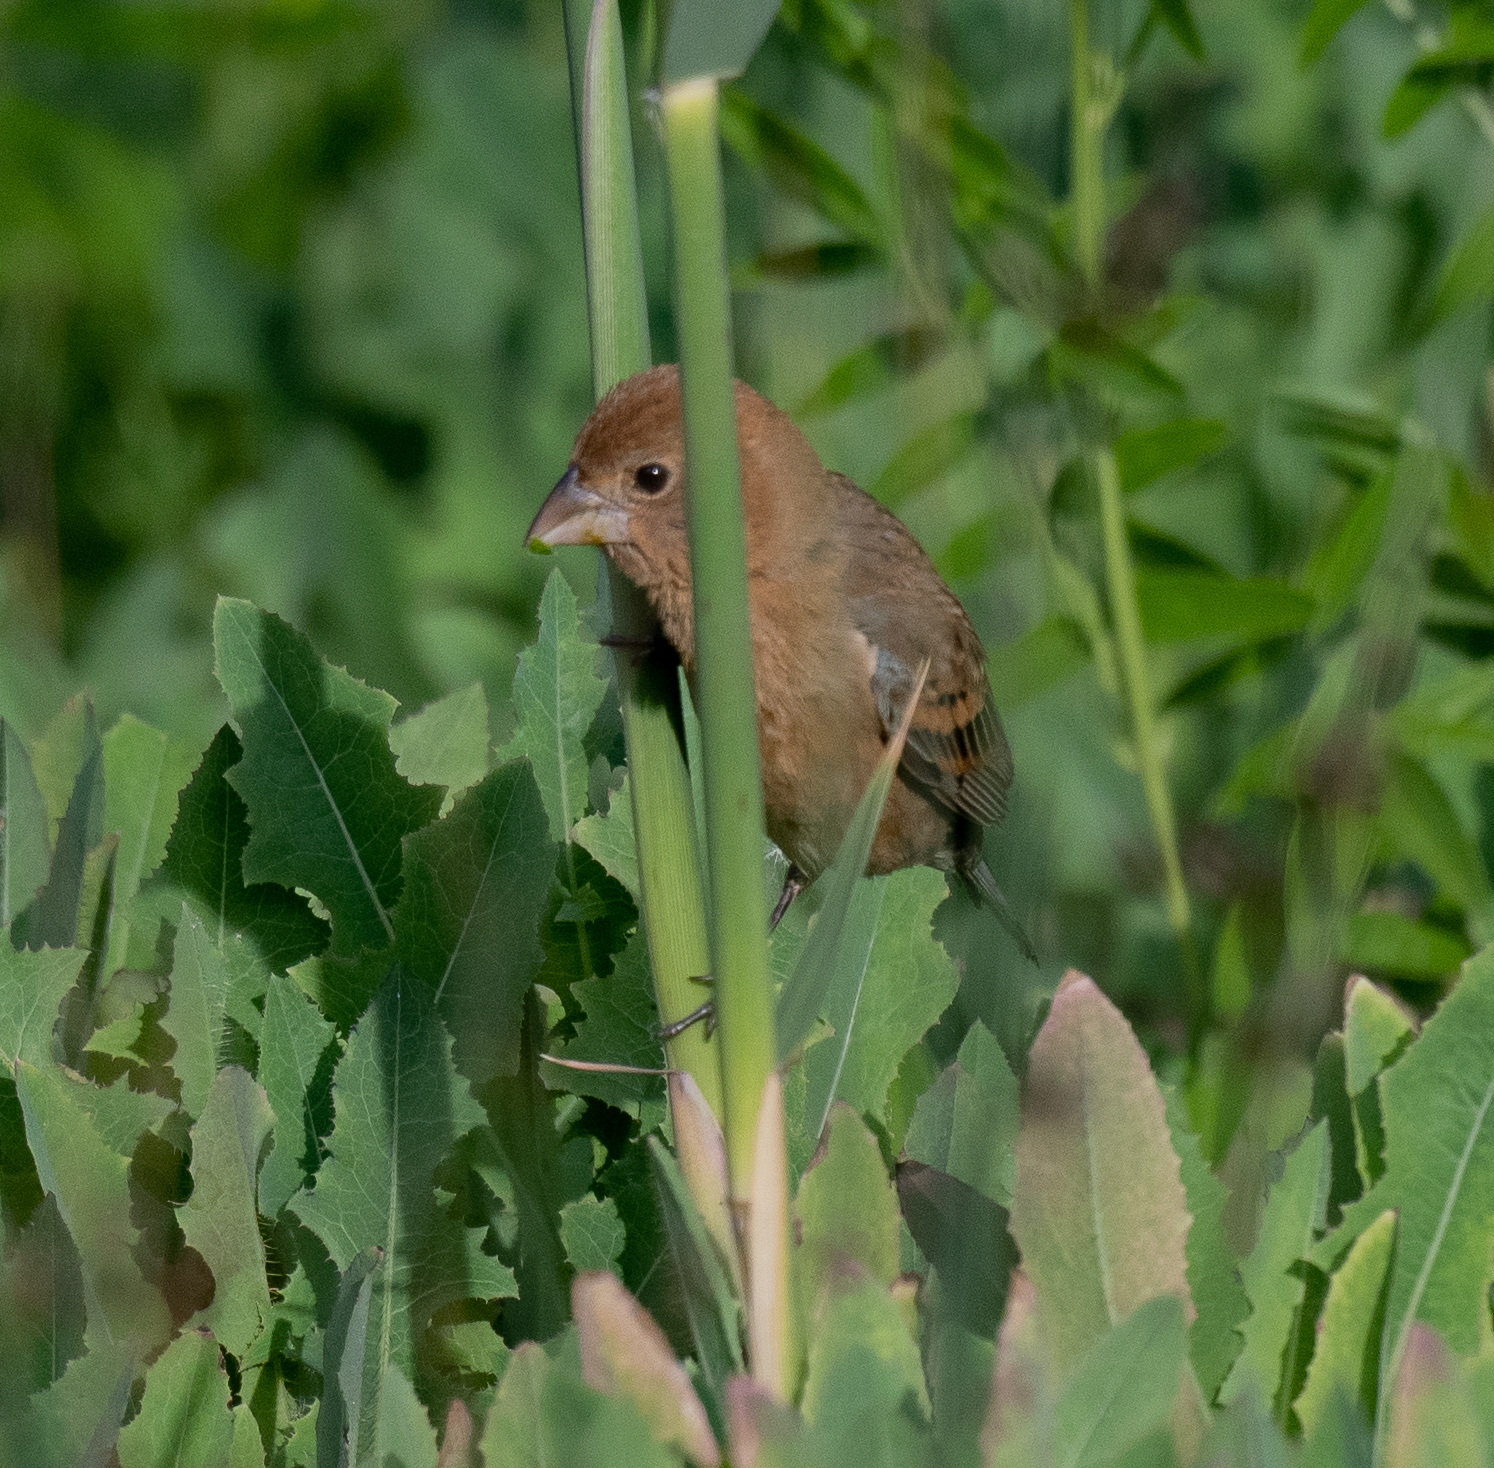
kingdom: Animalia
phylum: Chordata
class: Aves
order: Passeriformes
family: Cardinalidae
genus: Passerina
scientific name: Passerina caerulea
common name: Blue grosbeak
